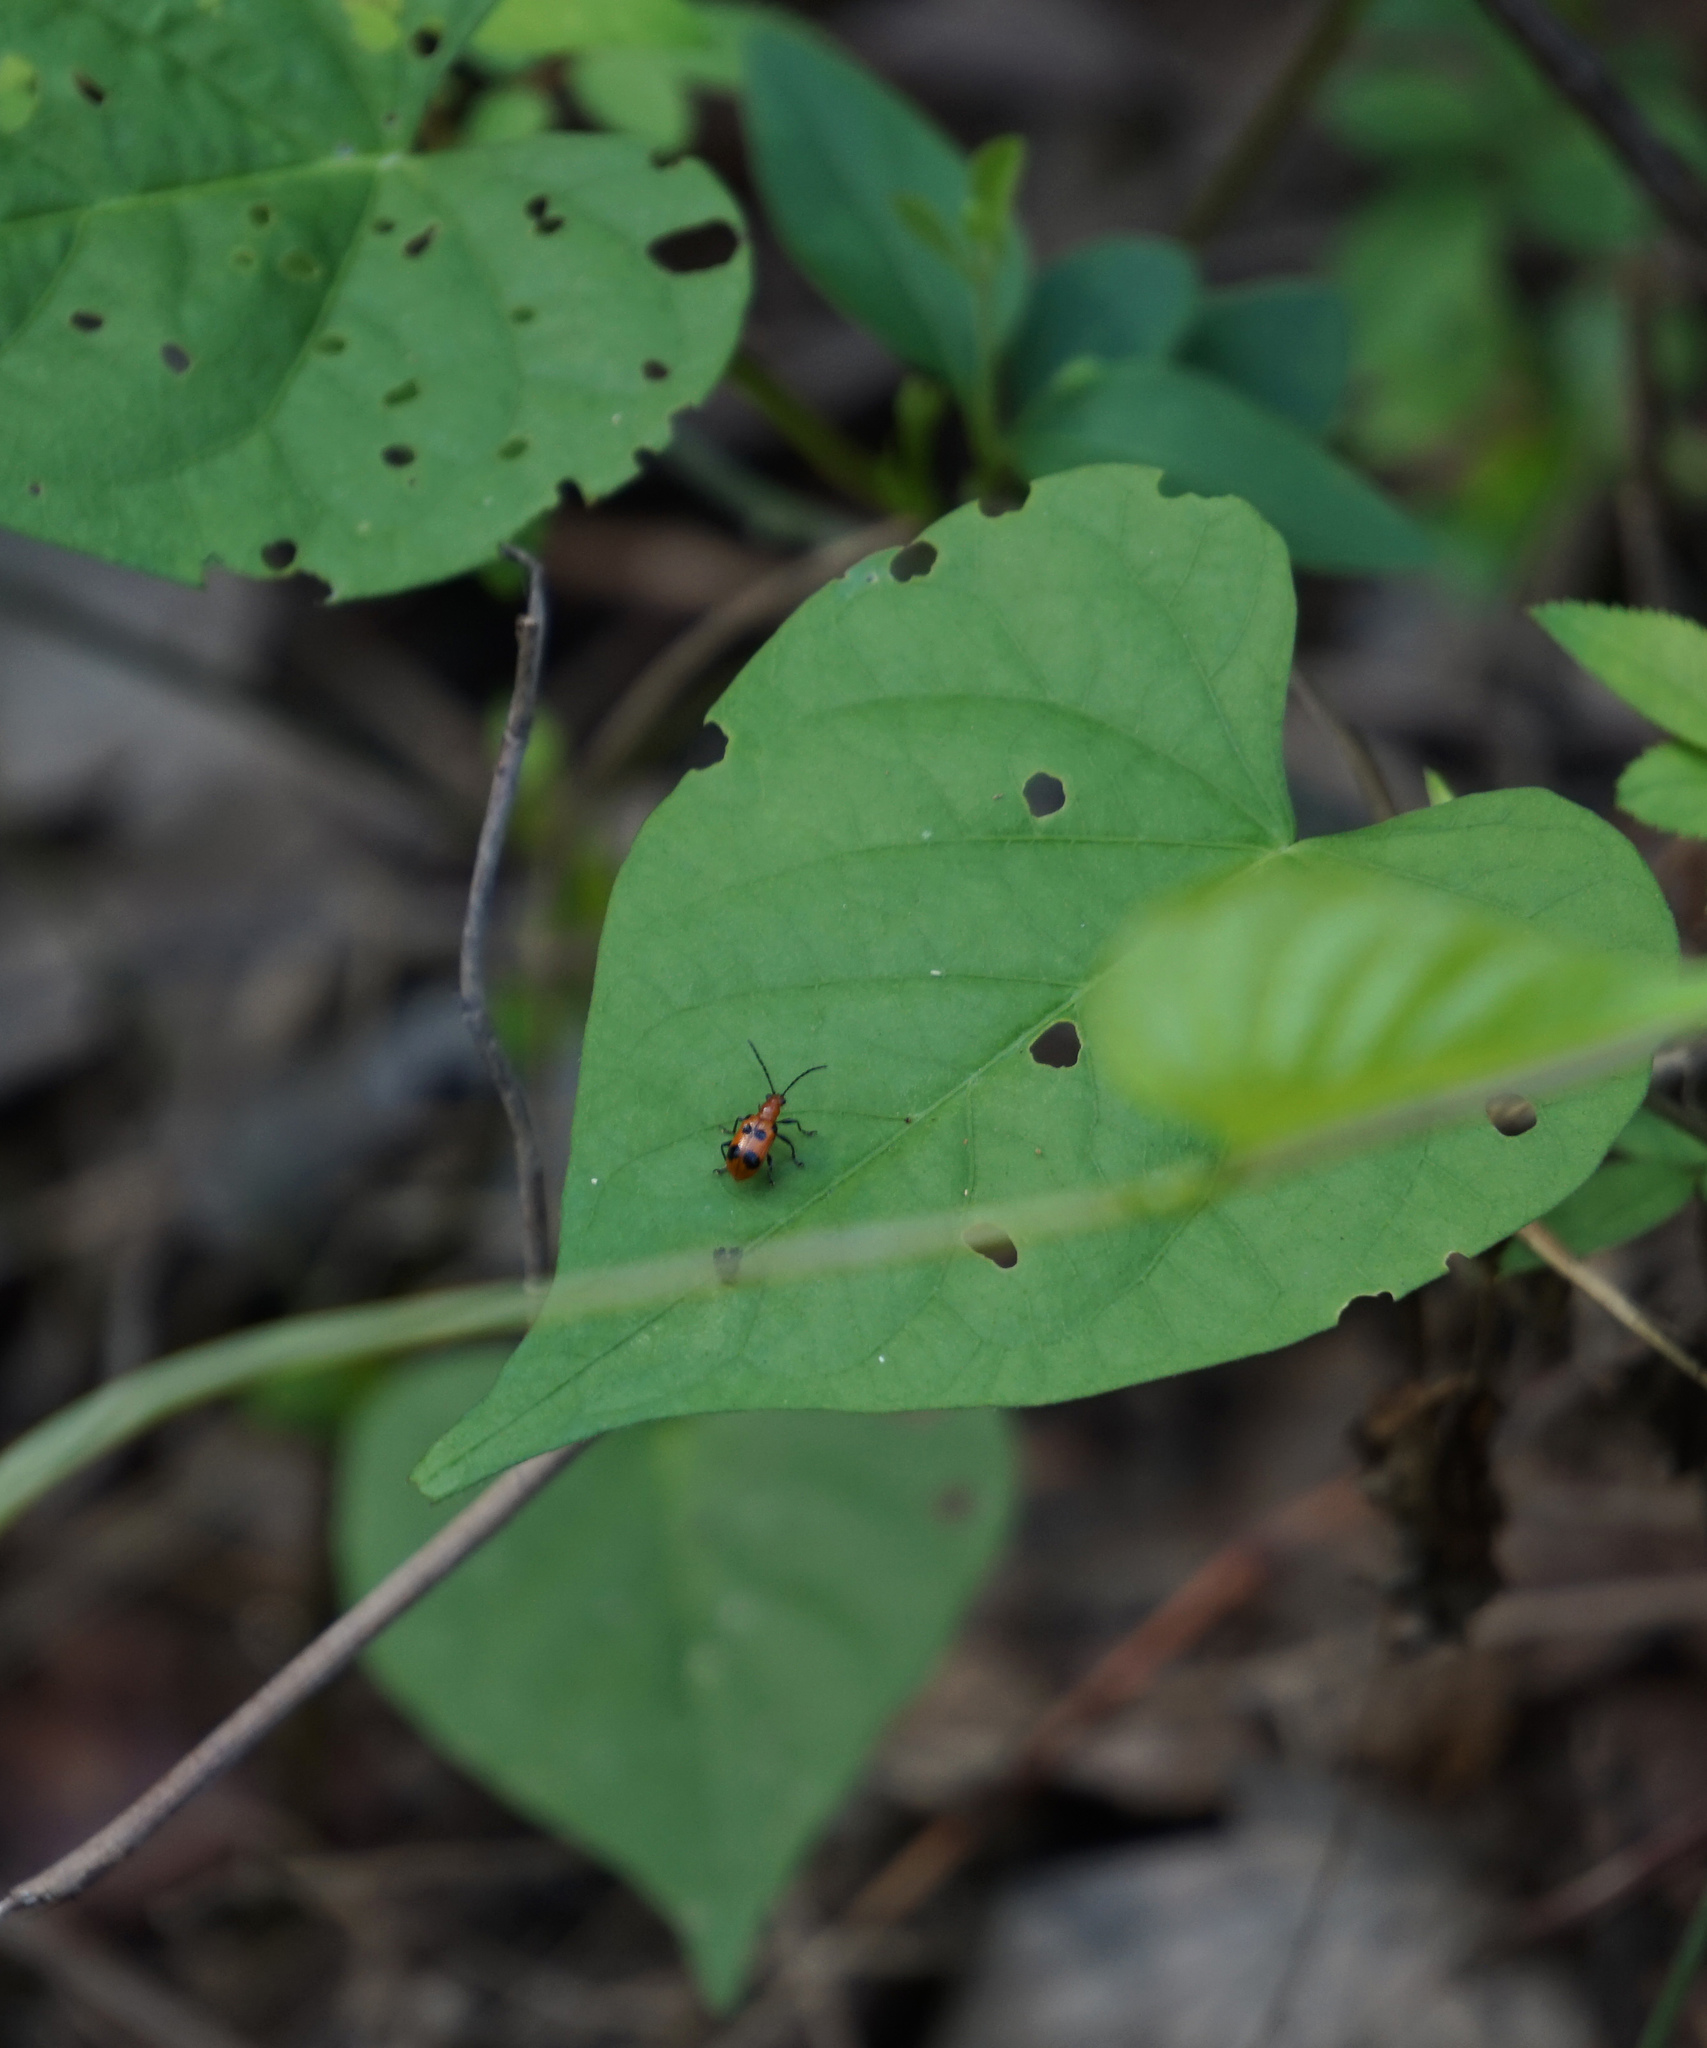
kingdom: Animalia
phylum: Arthropoda
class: Insecta
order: Coleoptera
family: Chrysomelidae
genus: Neolema
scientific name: Neolema sexpunctata
